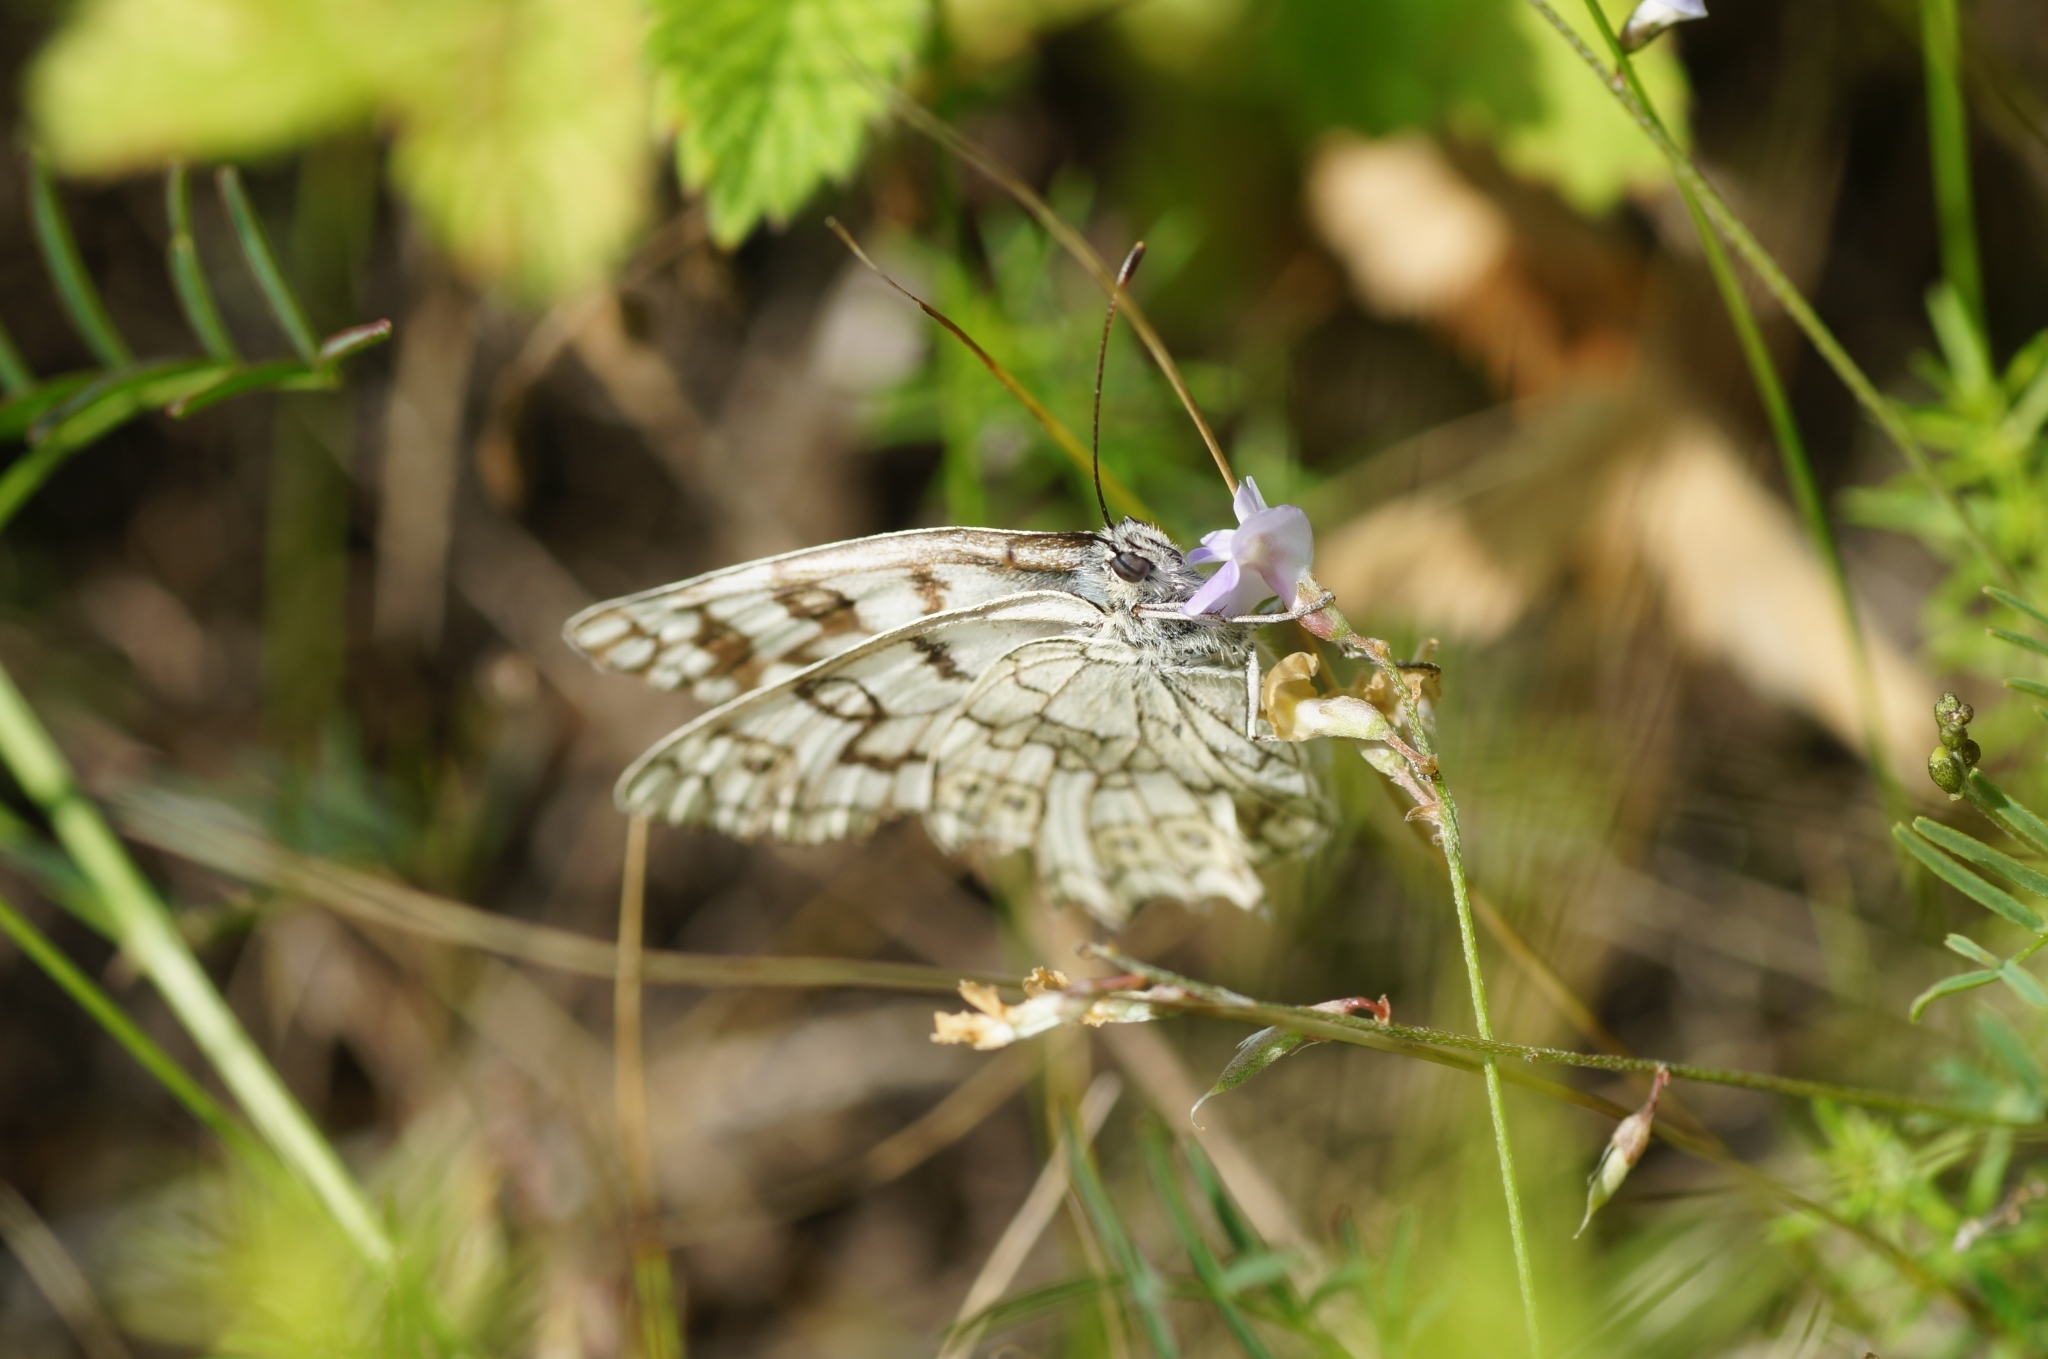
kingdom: Animalia
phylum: Arthropoda
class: Insecta
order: Lepidoptera
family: Nymphalidae
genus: Melanargia
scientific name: Melanargia japygia
